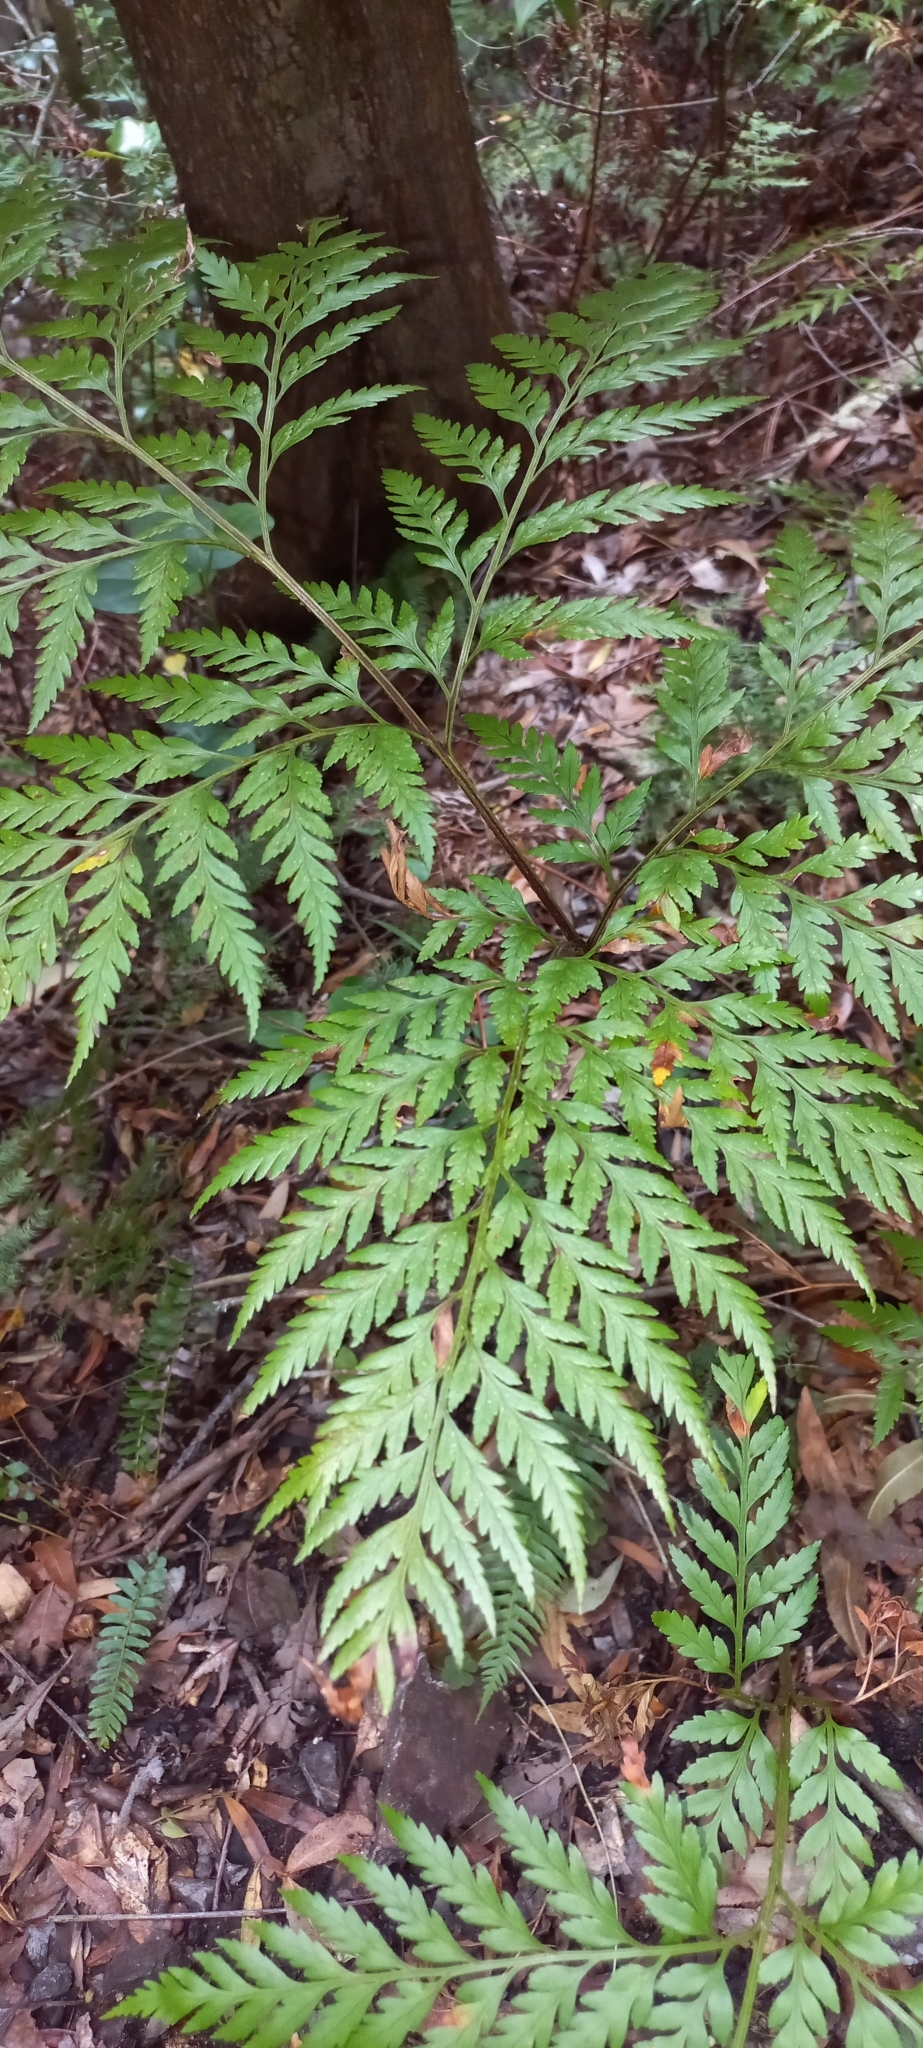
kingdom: Plantae
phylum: Tracheophyta
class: Polypodiopsida
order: Polypodiales
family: Dryopteridaceae
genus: Rumohra
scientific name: Rumohra adiantiformis
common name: Leather fern
